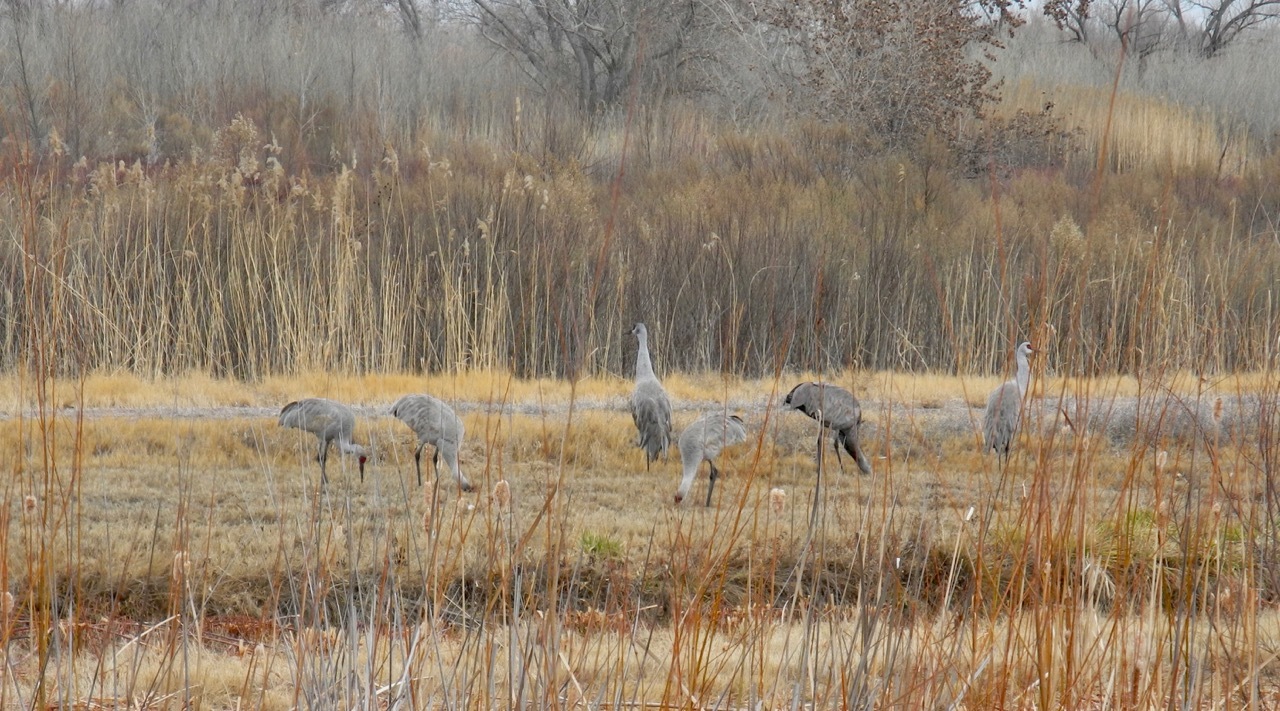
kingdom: Animalia
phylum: Chordata
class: Aves
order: Gruiformes
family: Gruidae
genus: Grus
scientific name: Grus canadensis
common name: Sandhill crane
